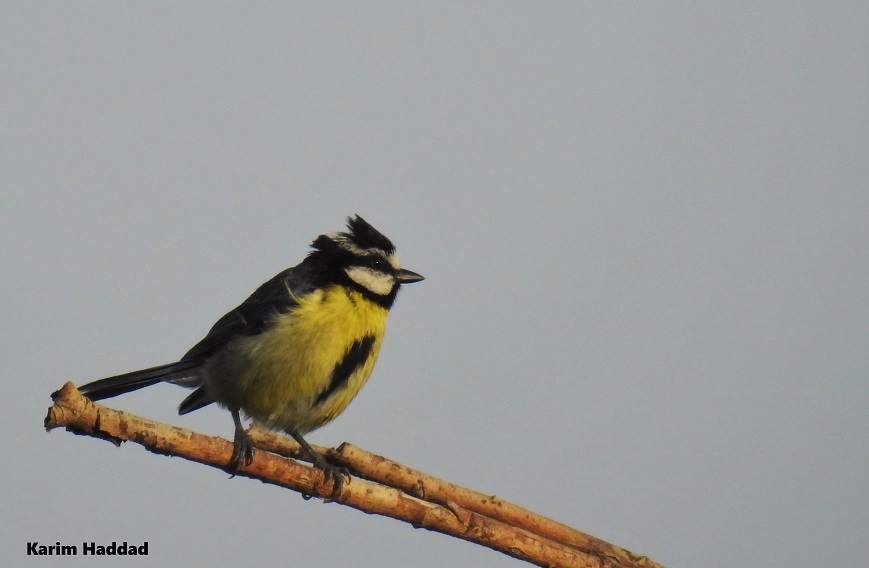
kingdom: Animalia
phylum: Chordata
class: Aves
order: Passeriformes
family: Paridae
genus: Cyanistes
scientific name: Cyanistes teneriffae
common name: African blue tit
